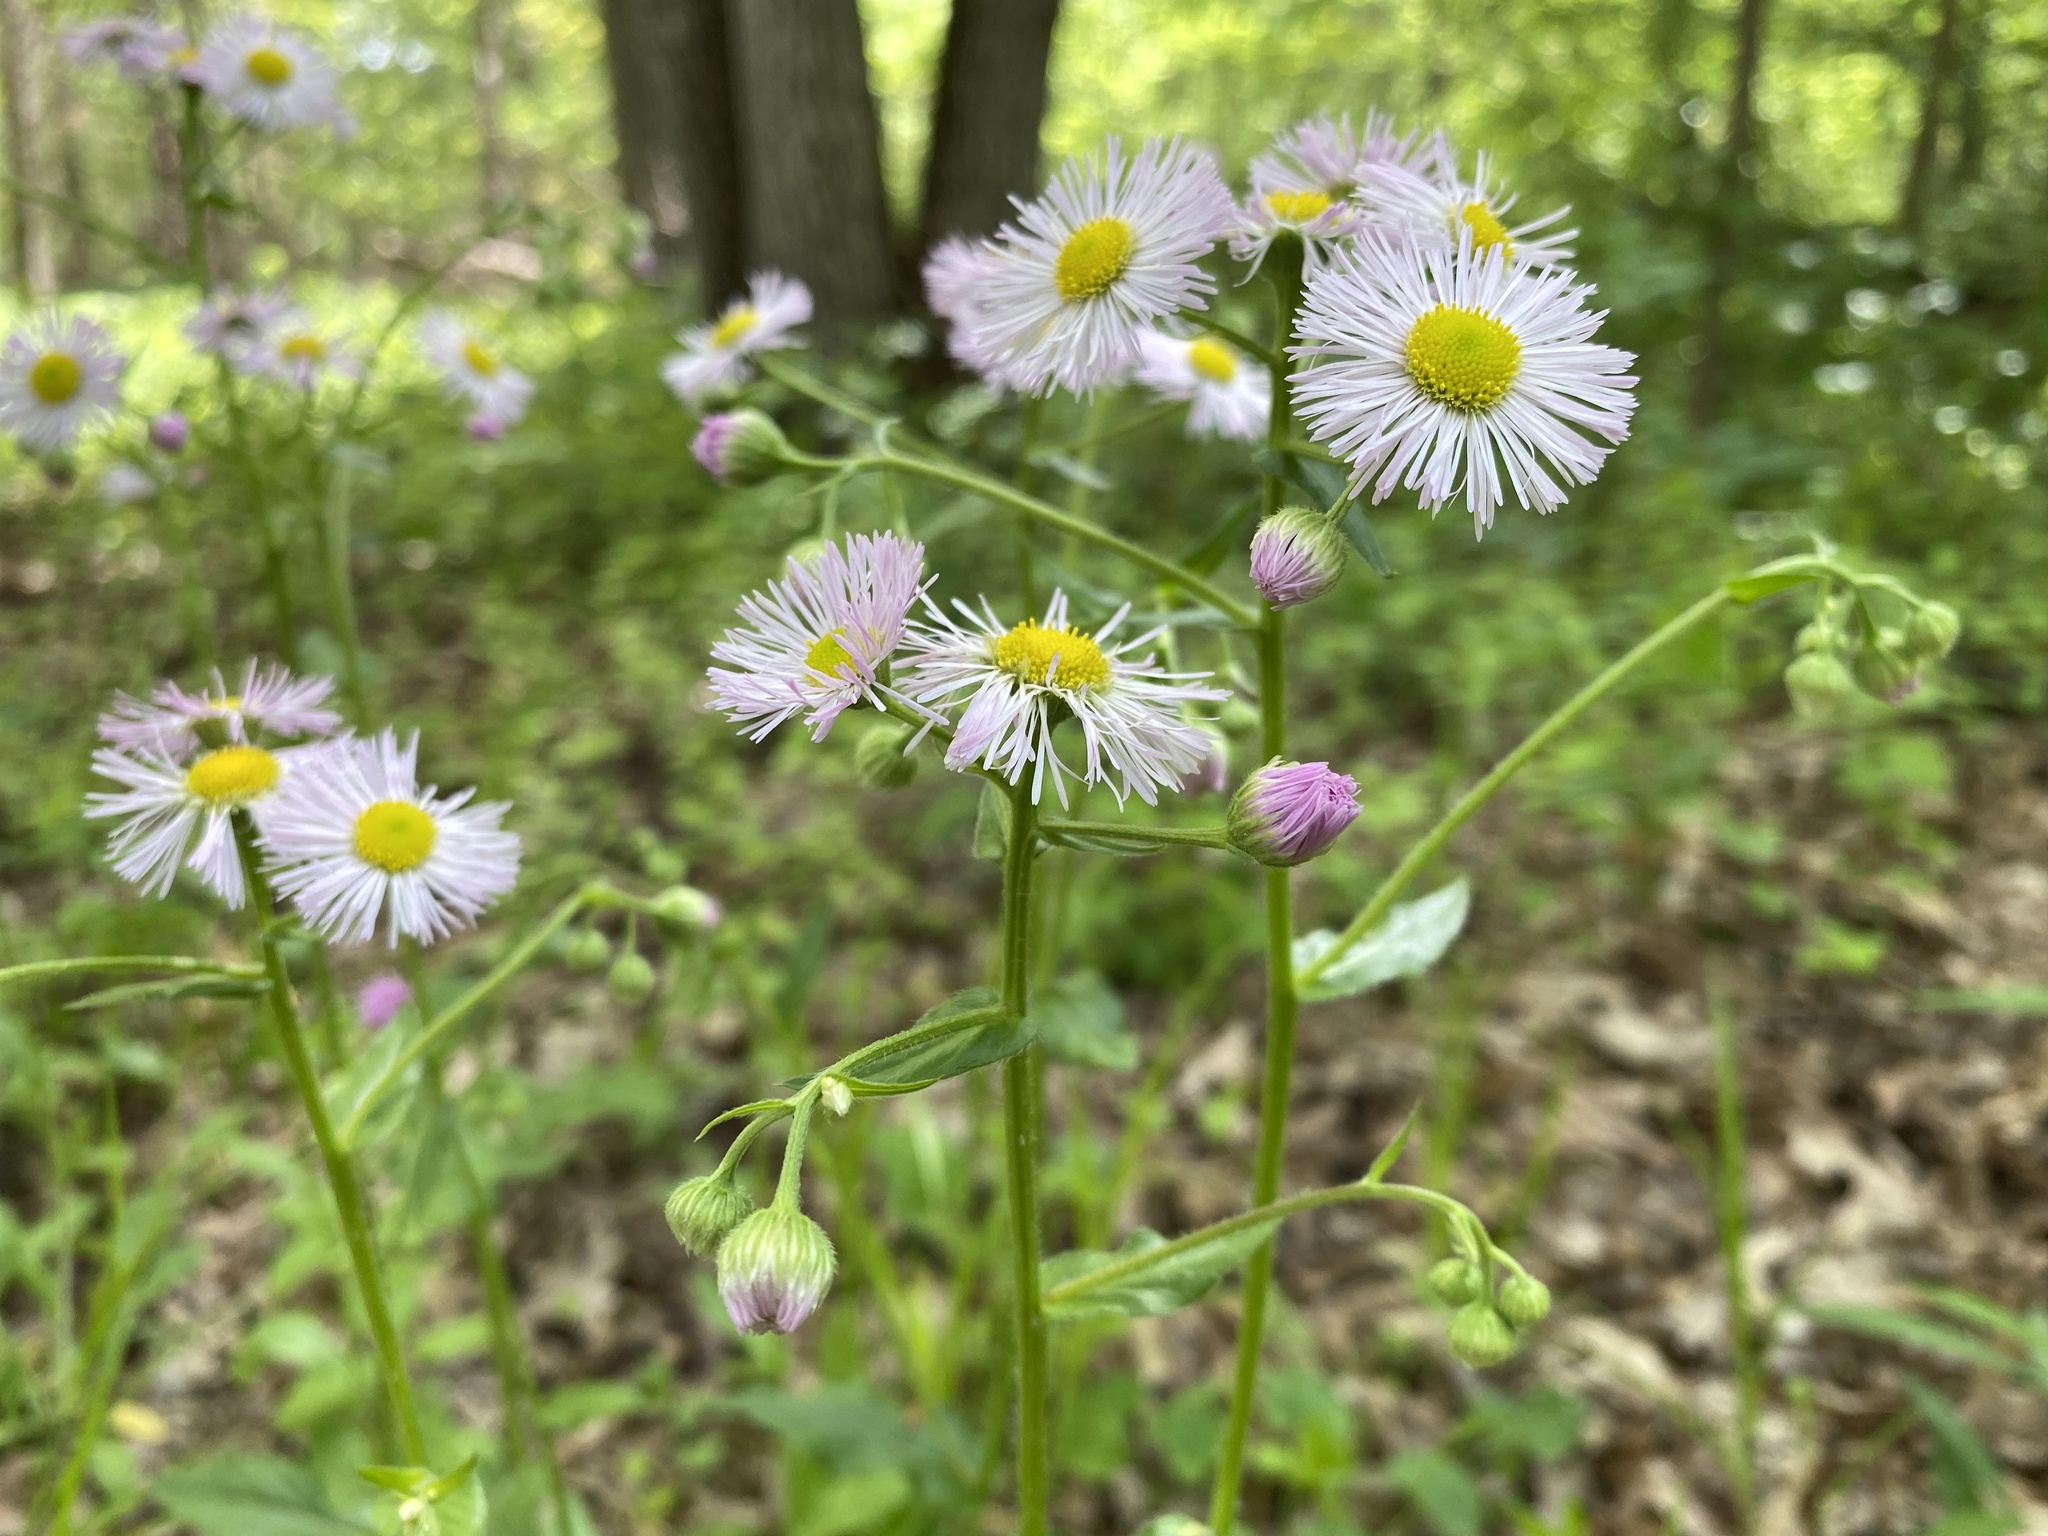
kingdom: Plantae
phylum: Tracheophyta
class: Magnoliopsida
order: Asterales
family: Asteraceae
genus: Erigeron
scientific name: Erigeron philadelphicus
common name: Robin's-plantain
